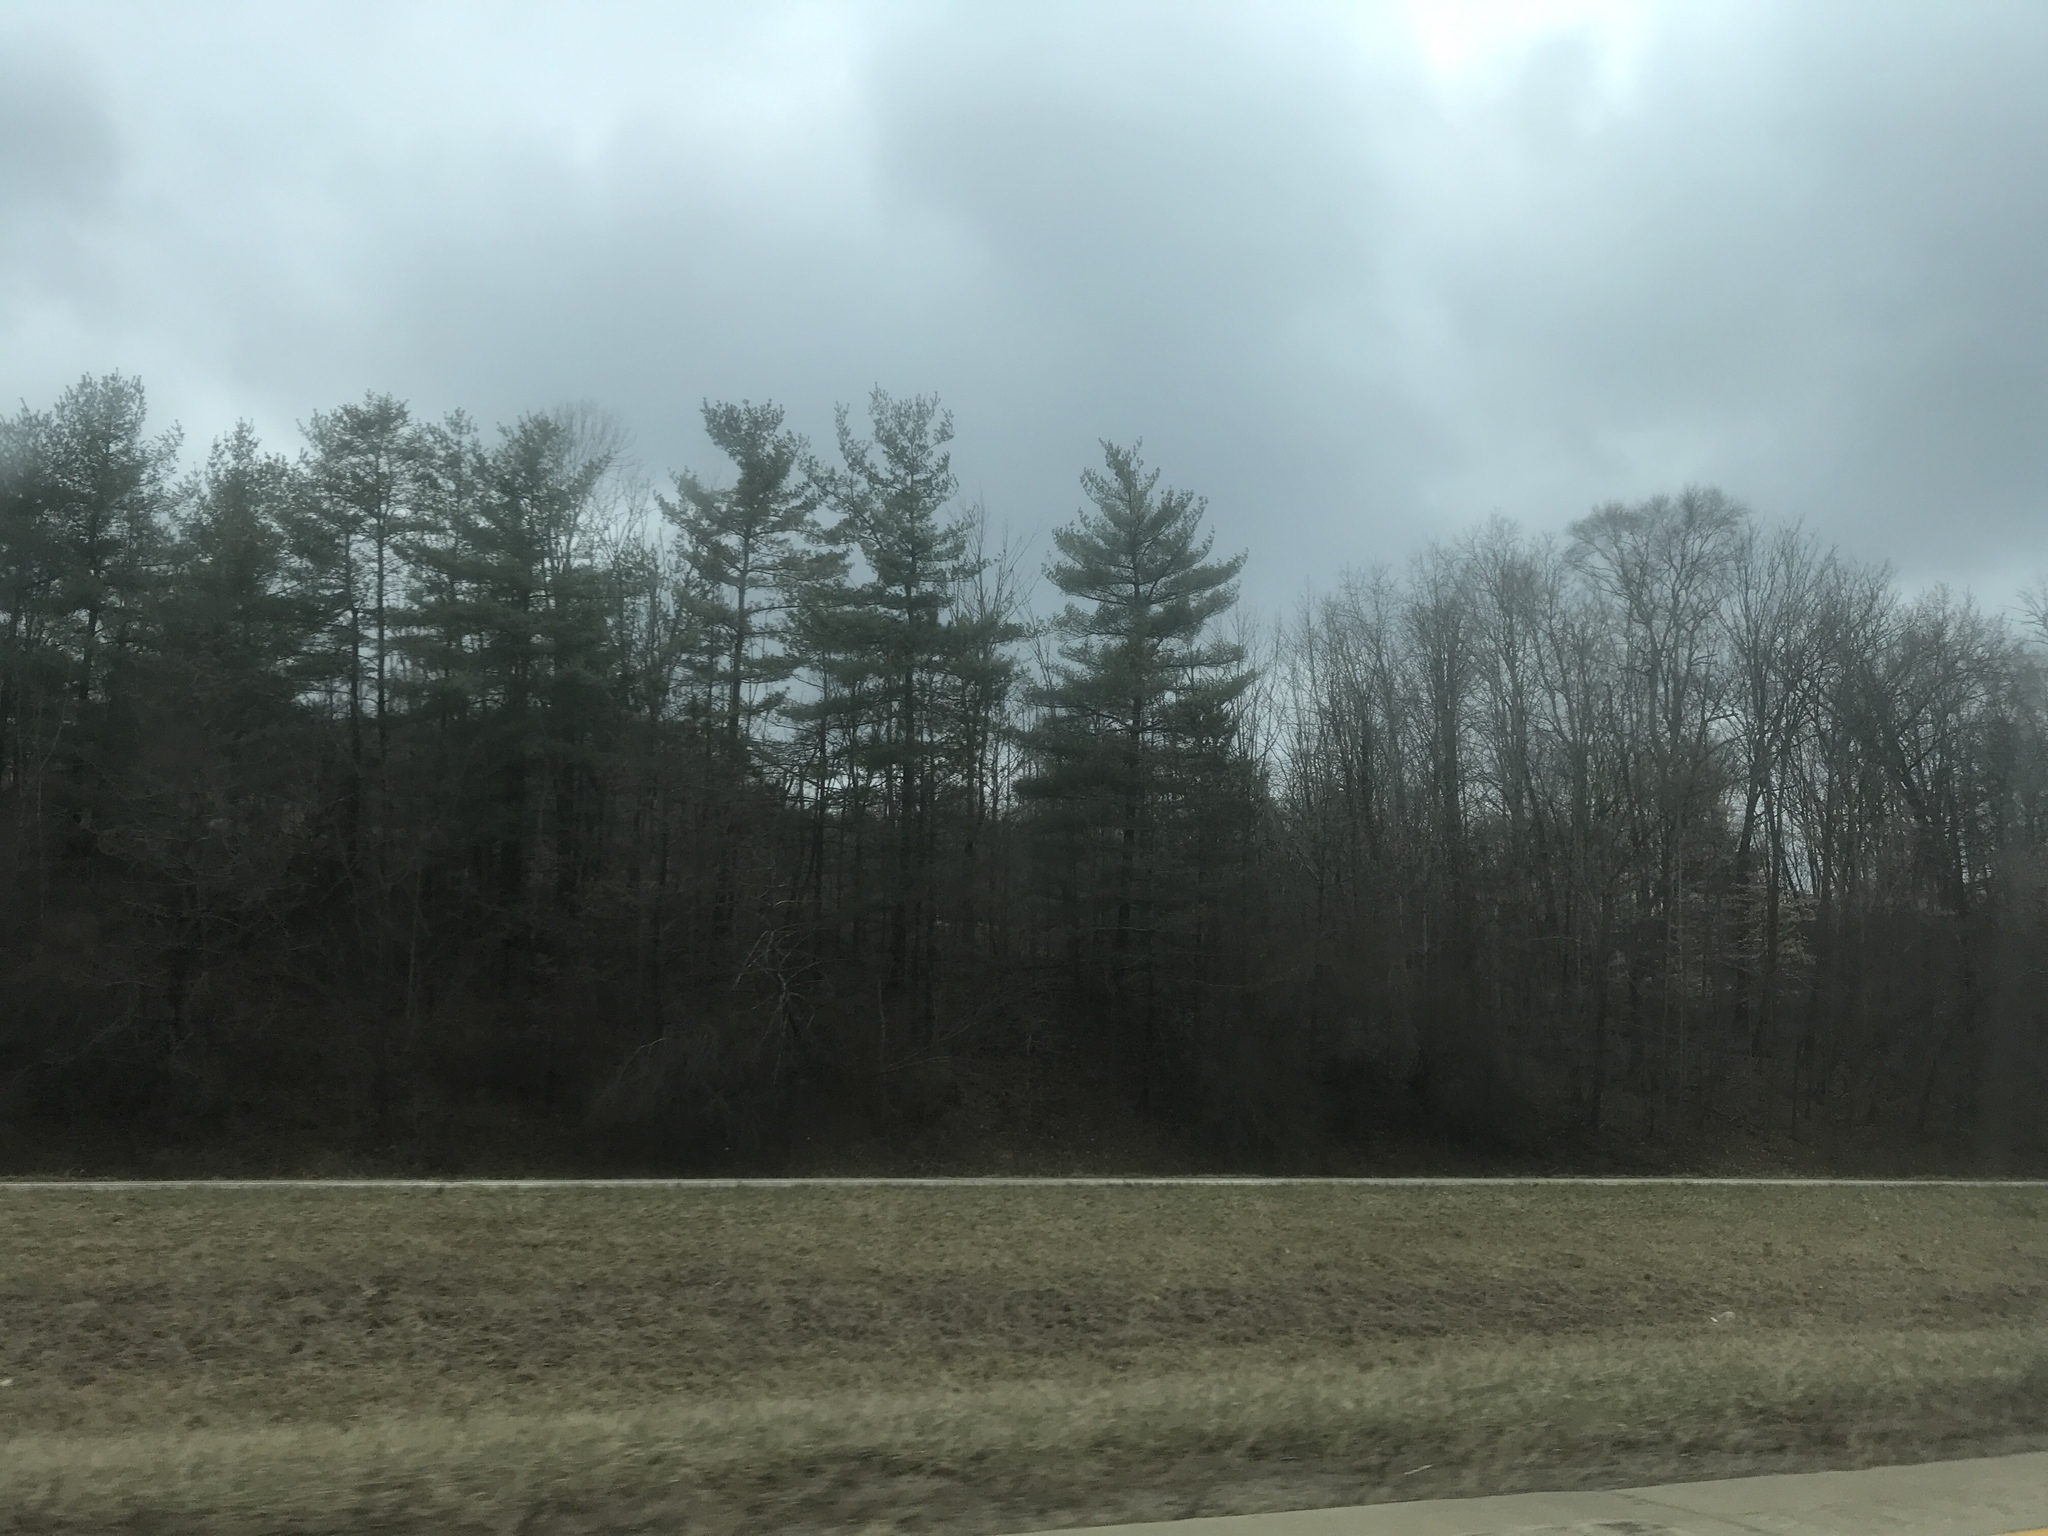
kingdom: Plantae
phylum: Tracheophyta
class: Pinopsida
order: Pinales
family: Pinaceae
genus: Pinus
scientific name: Pinus strobus
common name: Weymouth pine
